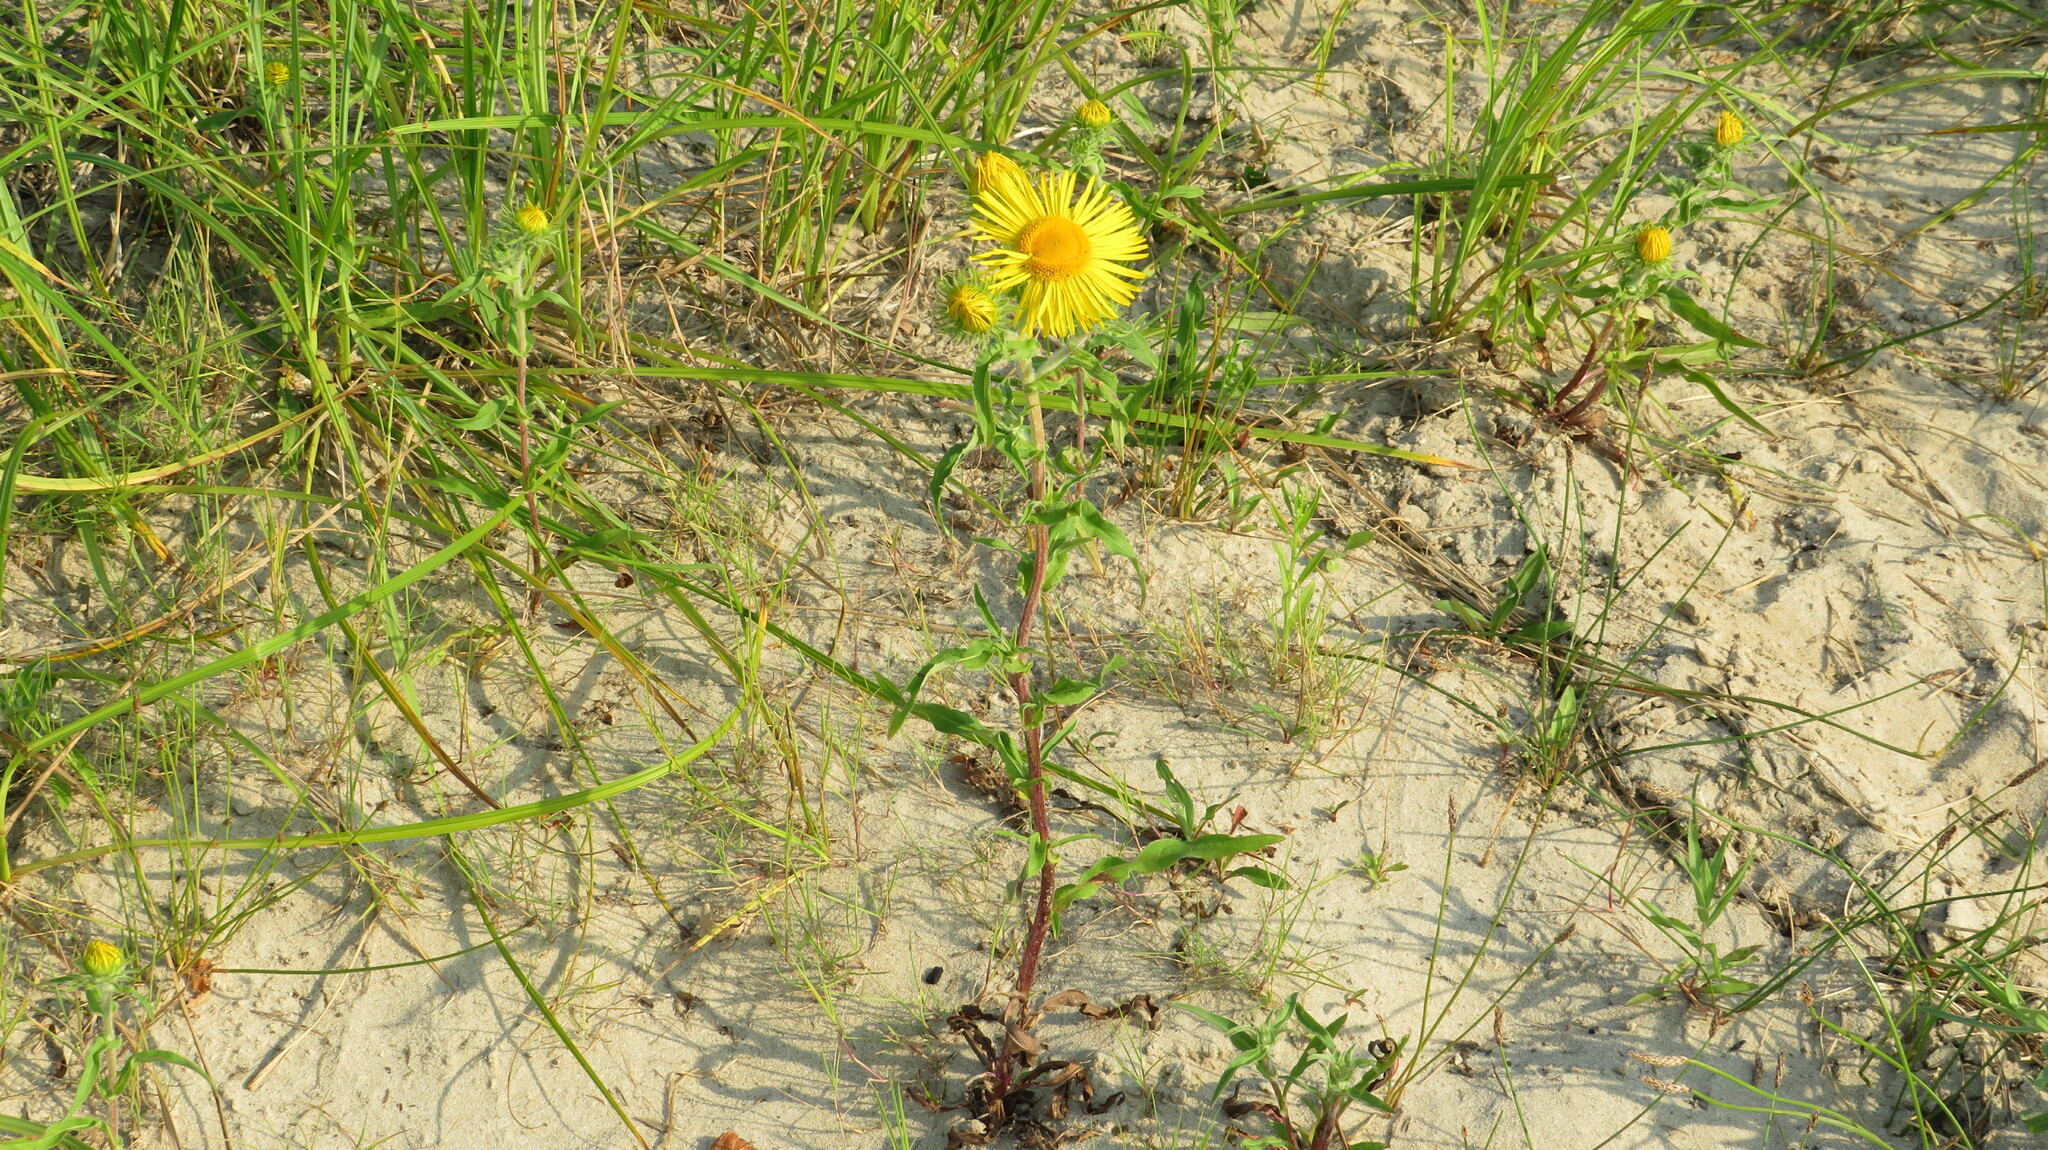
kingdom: Plantae
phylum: Tracheophyta
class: Magnoliopsida
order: Asterales
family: Asteraceae
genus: Pentanema
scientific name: Pentanema britannicum
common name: British elecampane
